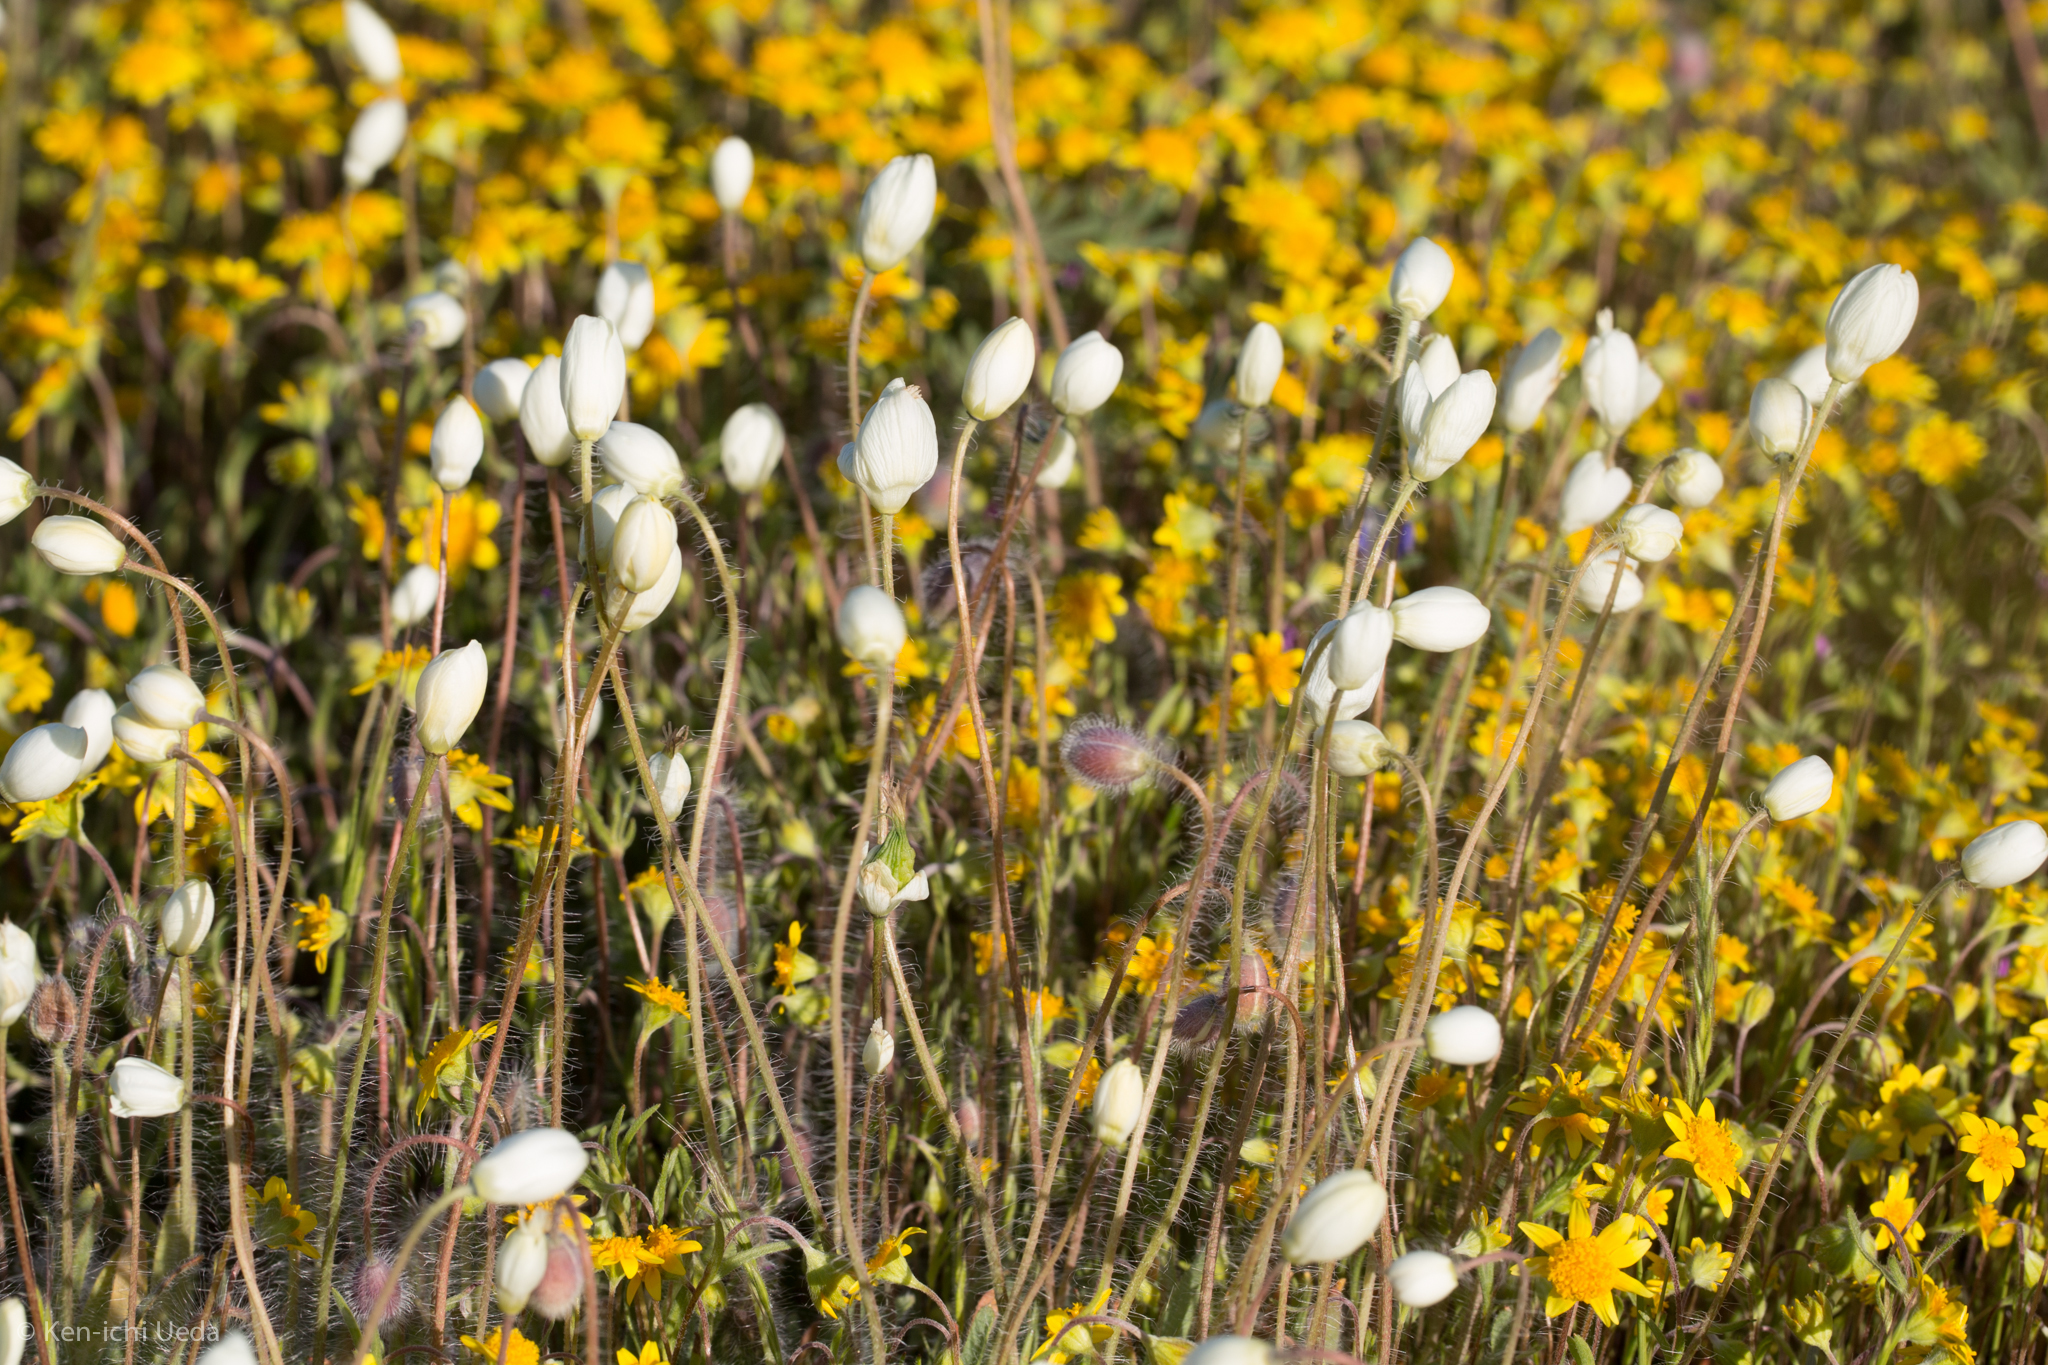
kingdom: Plantae
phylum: Tracheophyta
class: Magnoliopsida
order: Ranunculales
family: Papaveraceae
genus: Platystemon
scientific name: Platystemon californicus
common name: Cream-cups
